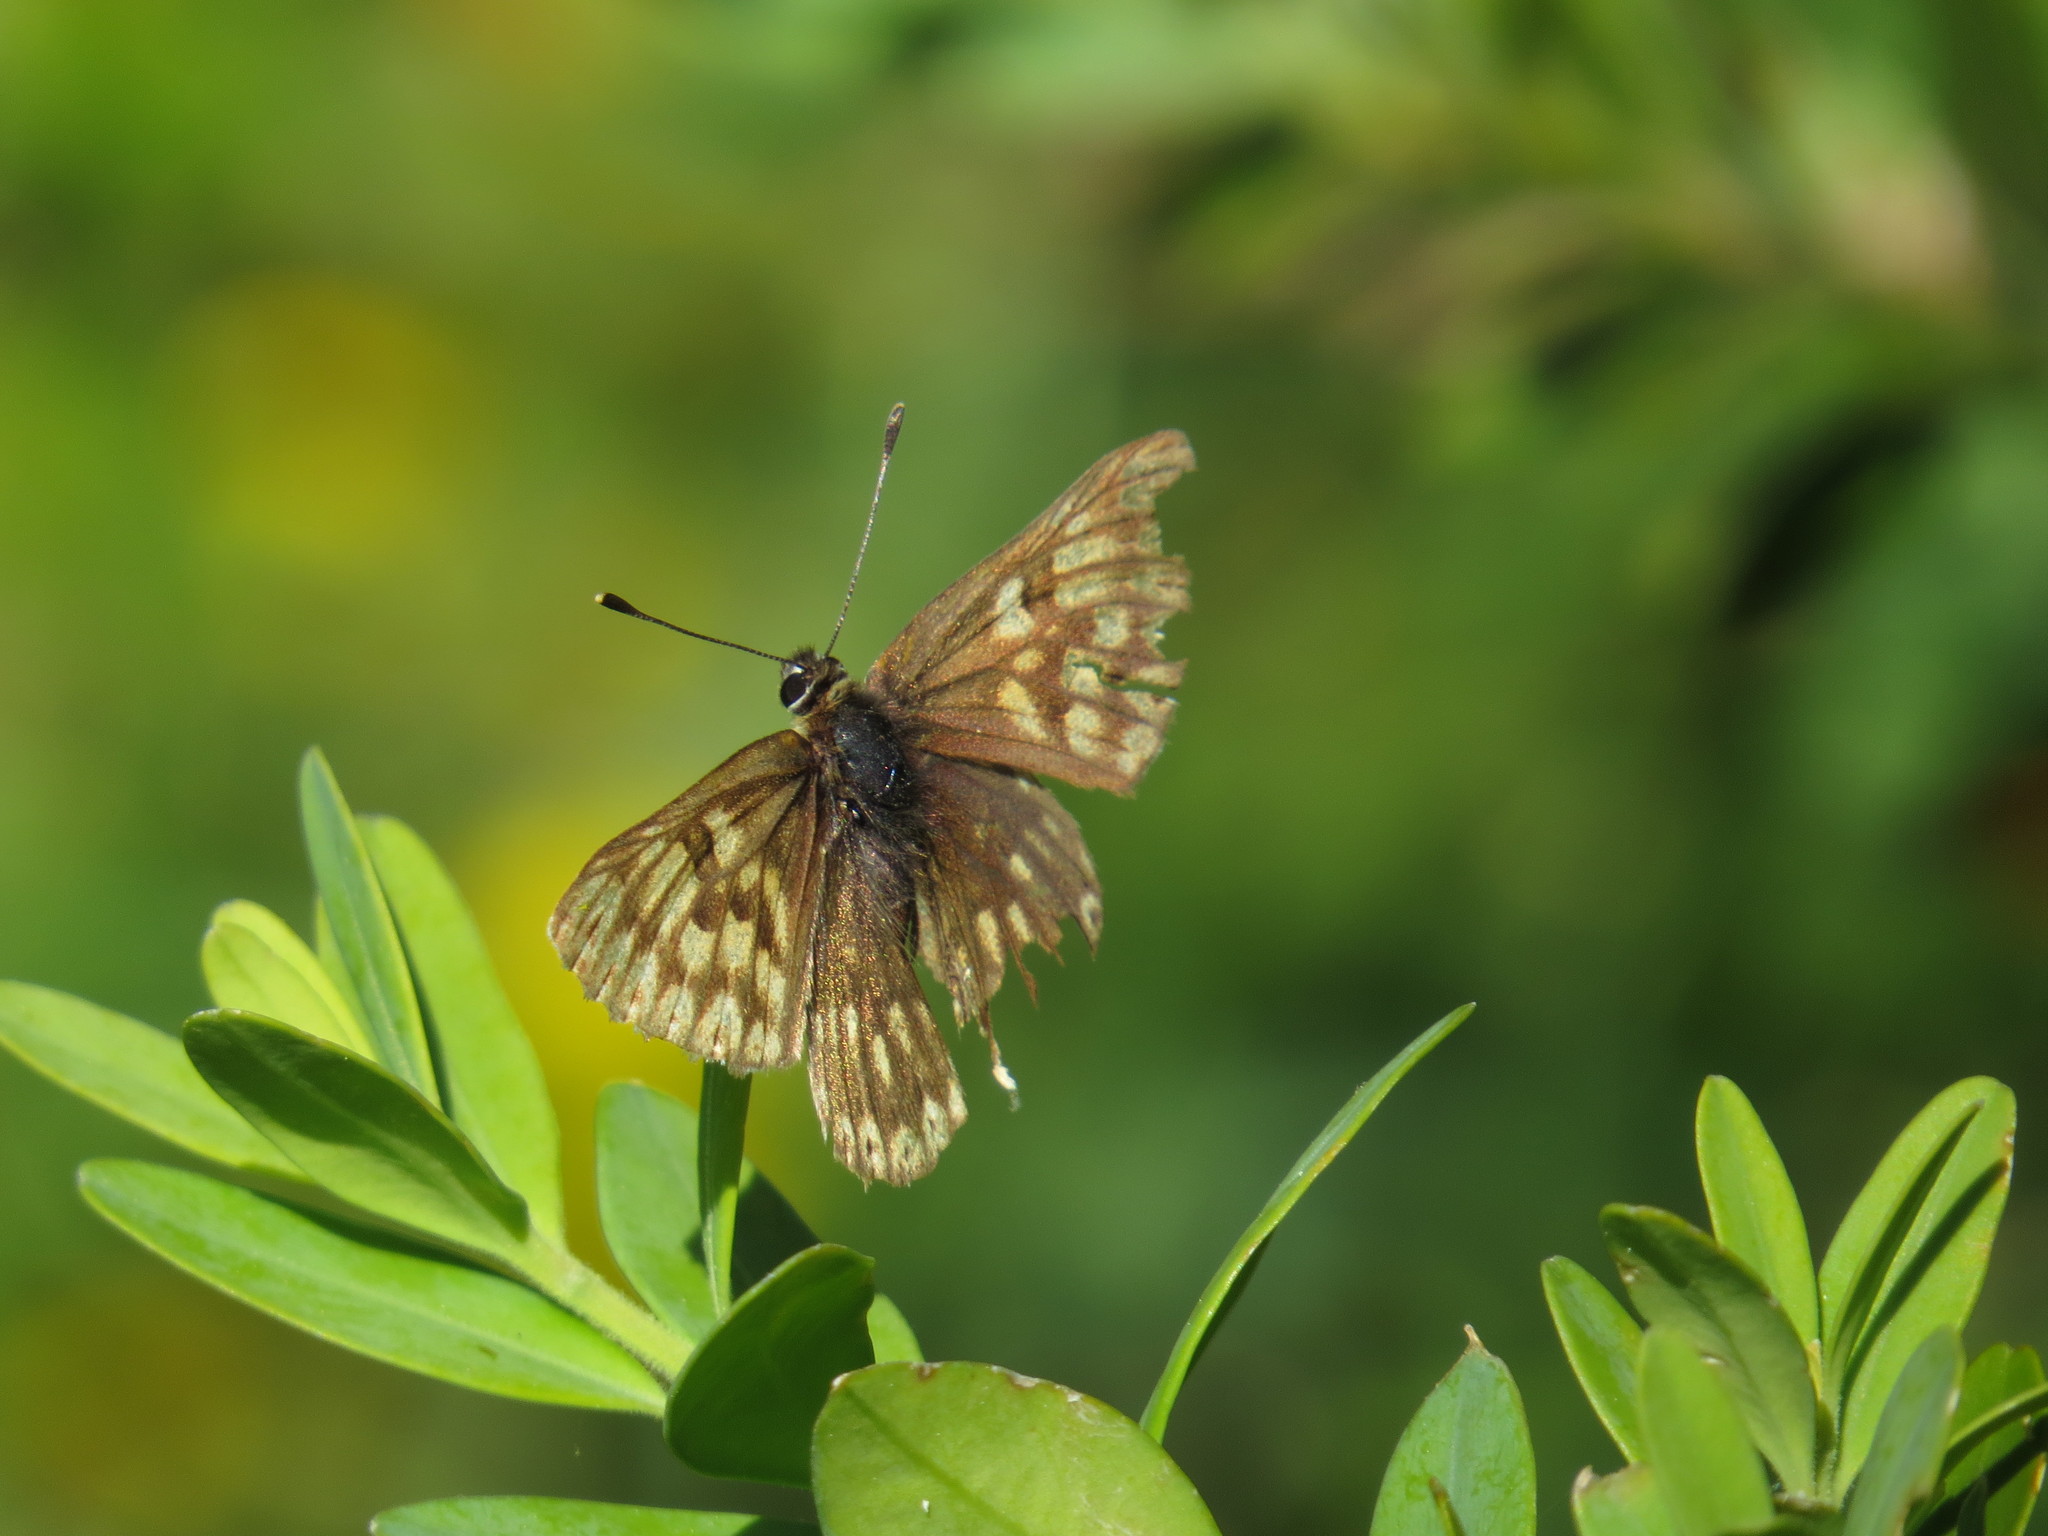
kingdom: Animalia
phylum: Arthropoda
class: Insecta
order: Lepidoptera
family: Riodinidae
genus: Hamearis
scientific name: Hamearis lucina
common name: Duke of burgundy fritillary
